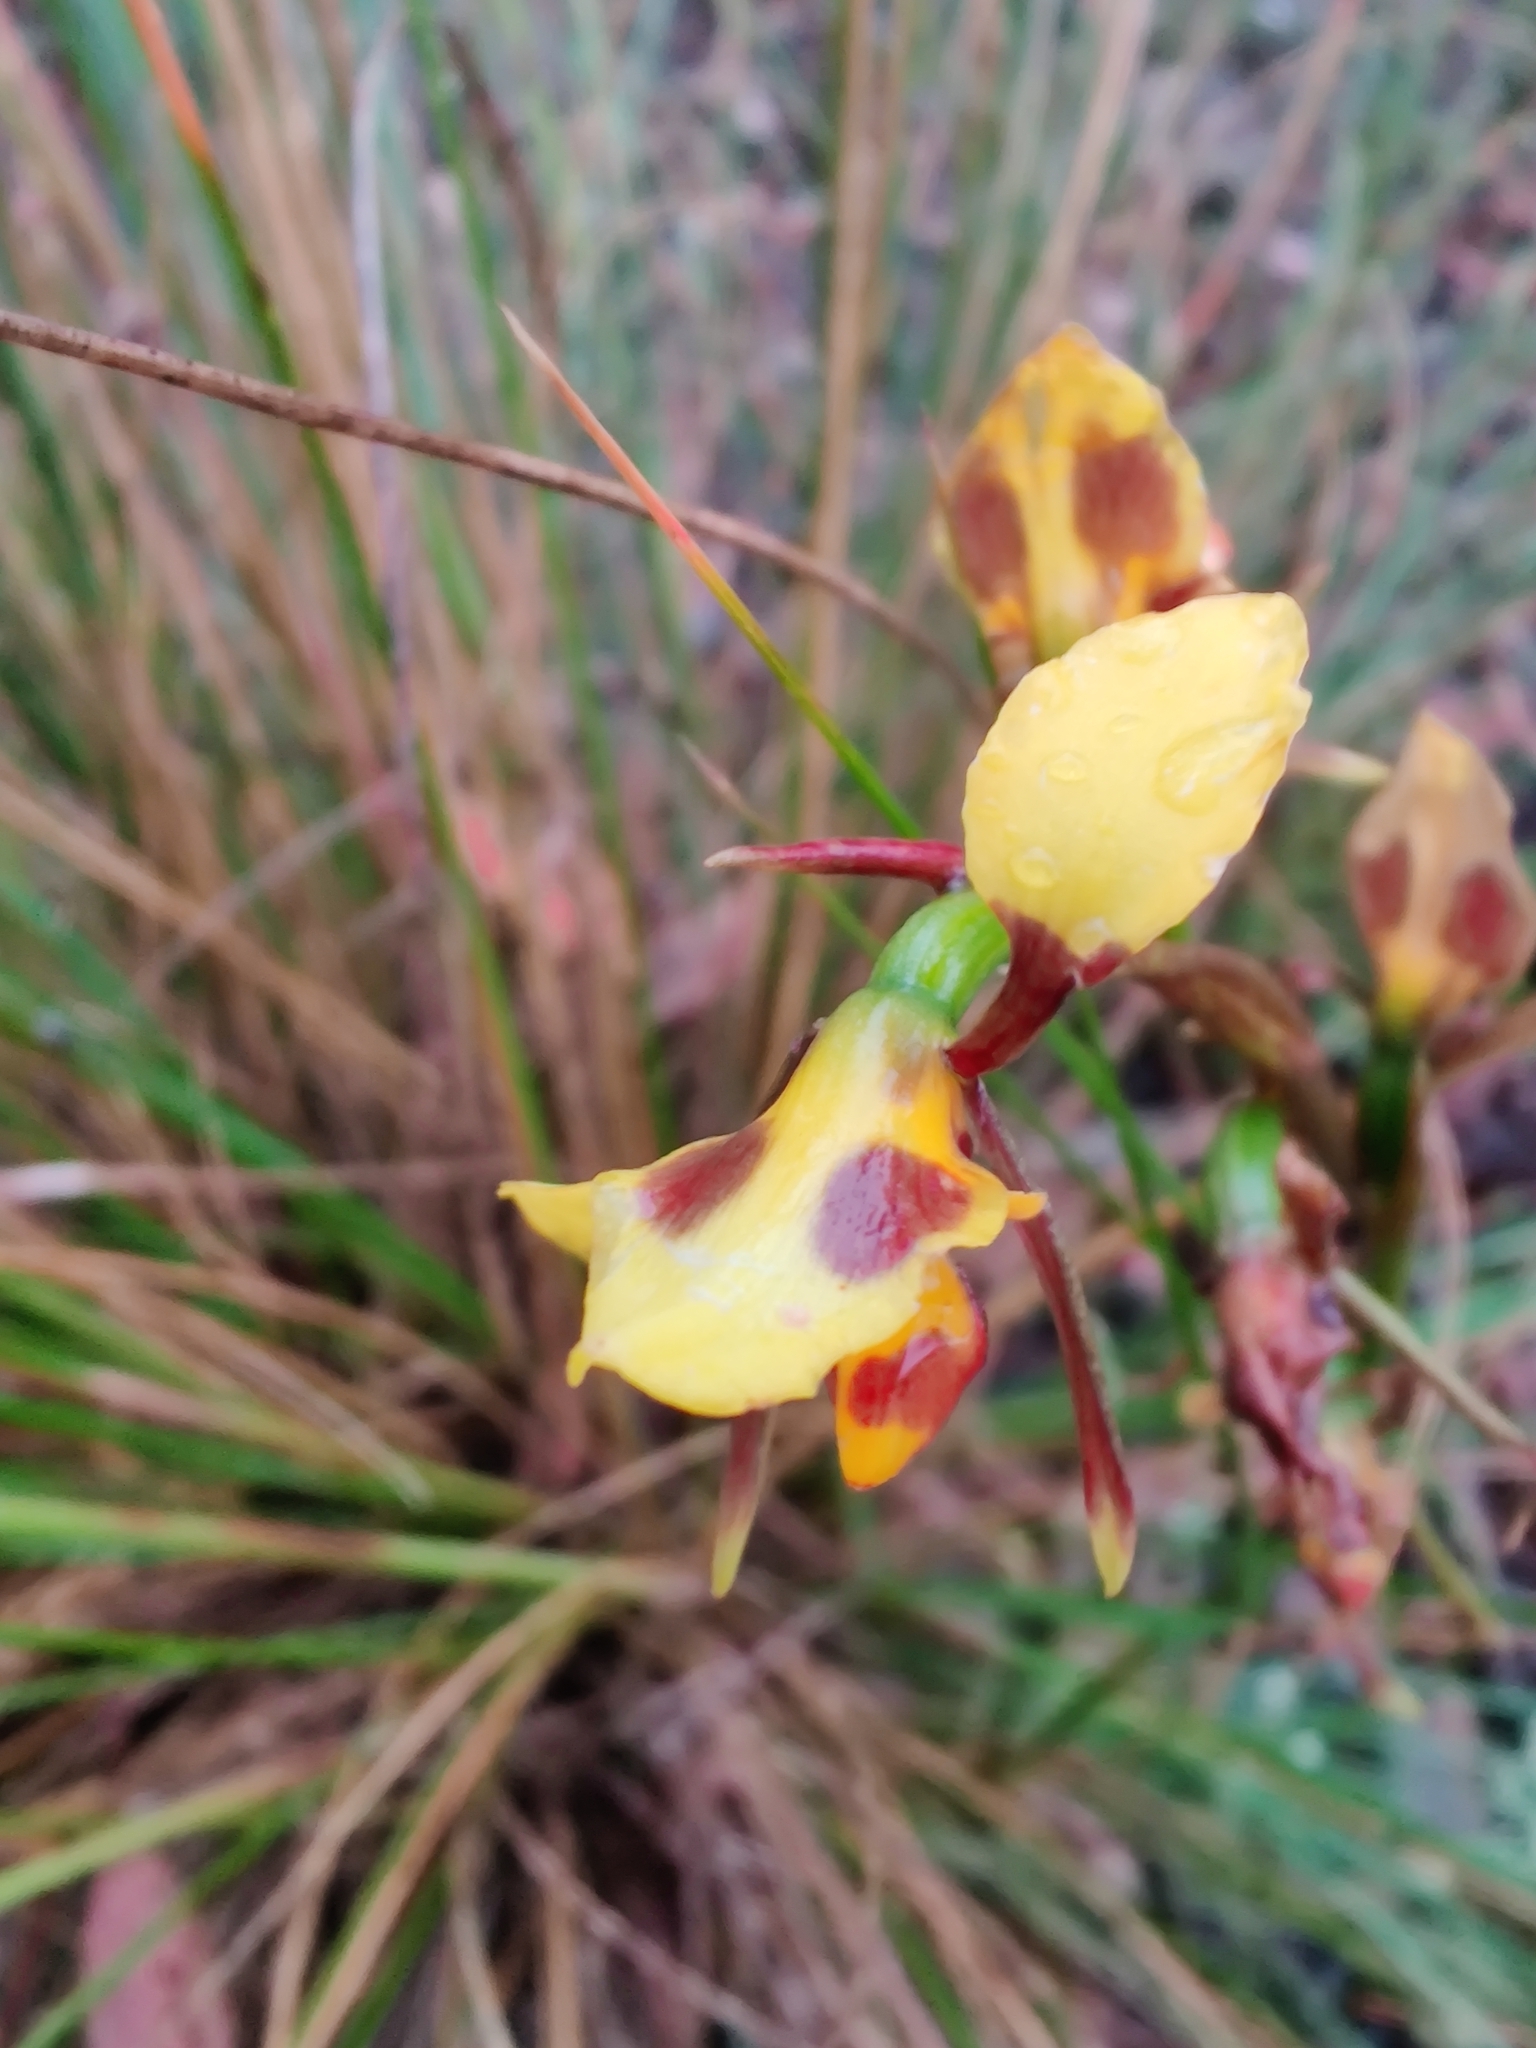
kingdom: Plantae
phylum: Tracheophyta
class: Liliopsida
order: Asparagales
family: Orchidaceae
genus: Diuris
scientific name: Diuris sulphurea
